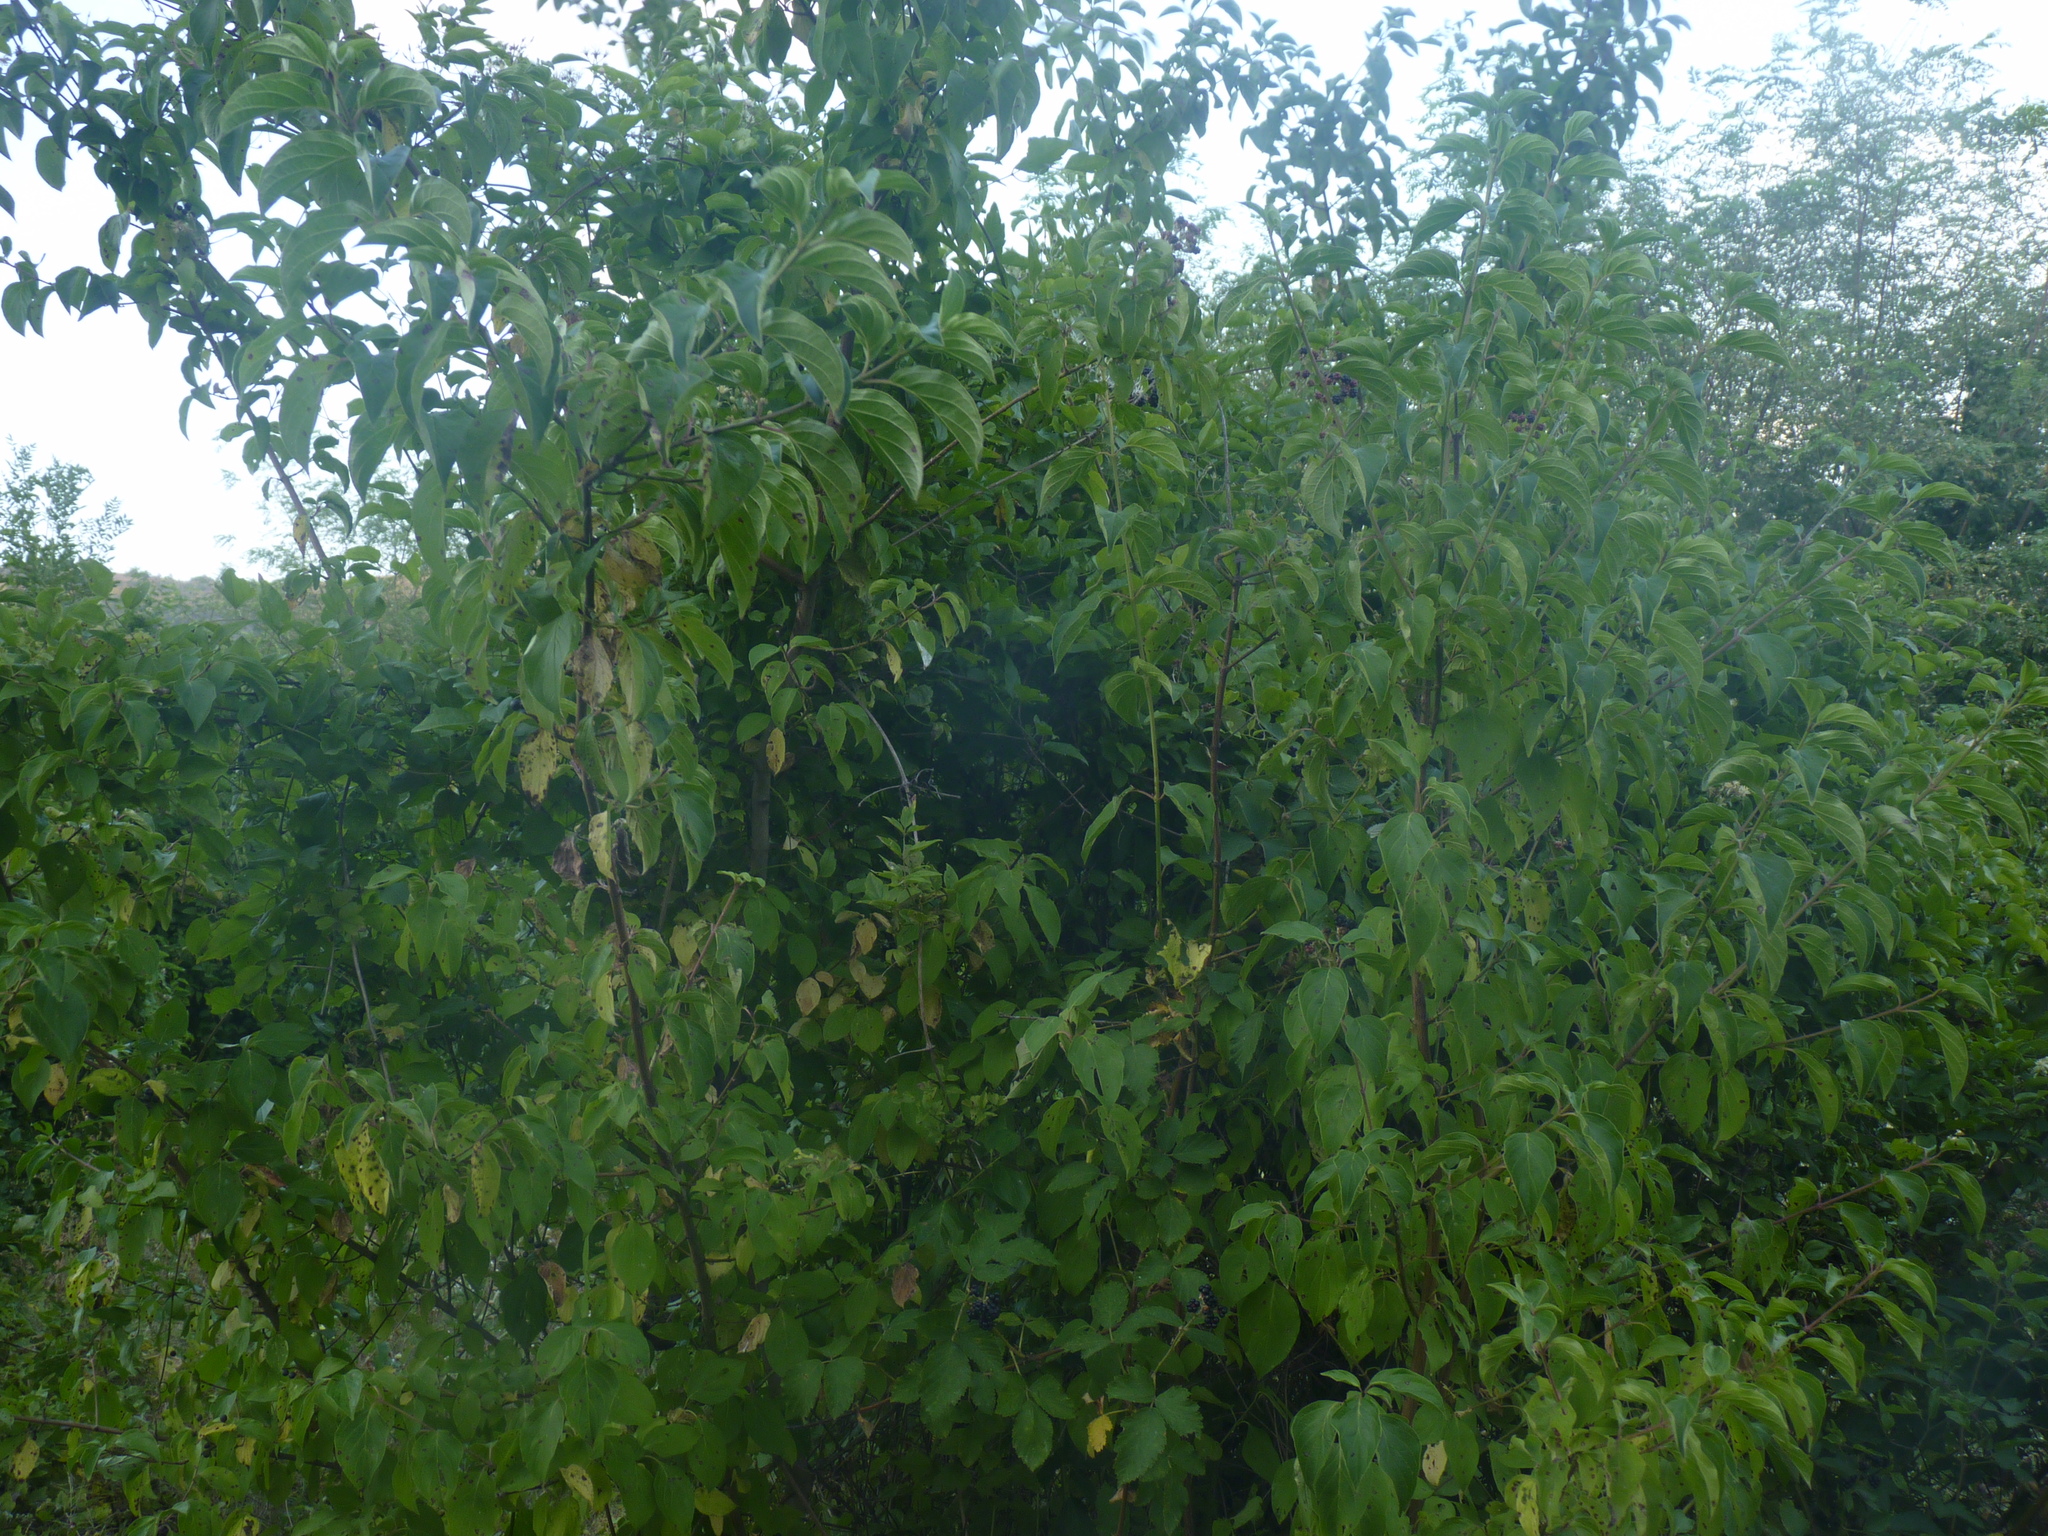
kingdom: Plantae
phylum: Tracheophyta
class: Magnoliopsida
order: Cornales
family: Cornaceae
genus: Cornus
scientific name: Cornus sanguinea
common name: Dogwood
